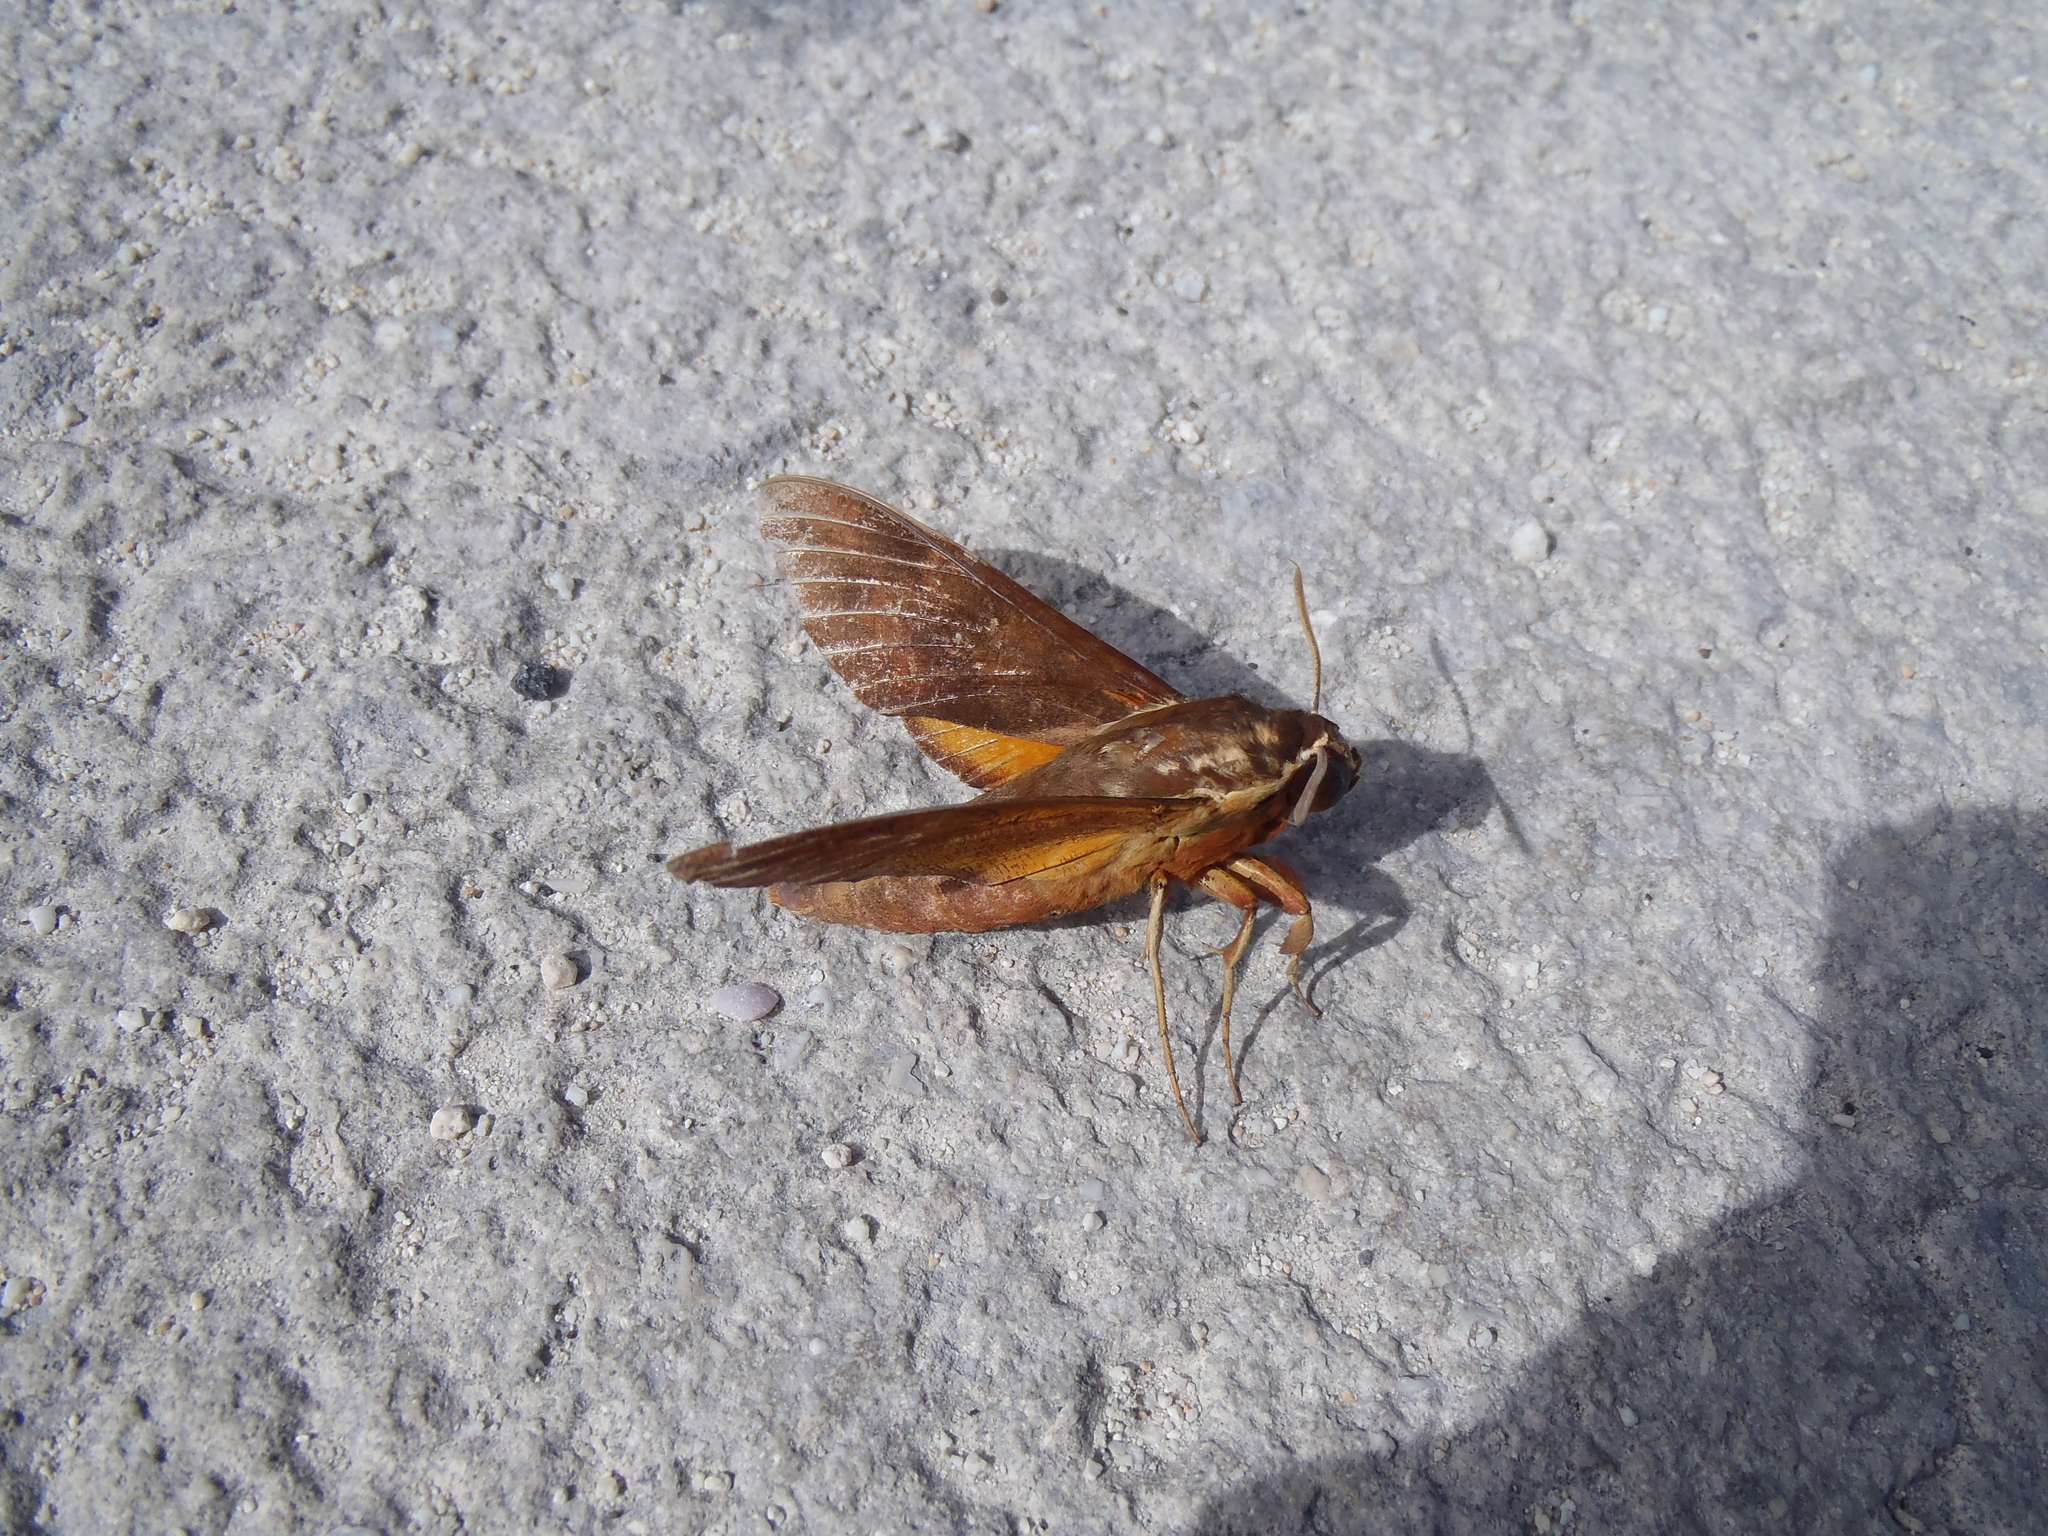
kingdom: Animalia
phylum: Arthropoda
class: Insecta
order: Lepidoptera
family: Sphingidae
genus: Gnathothlibus
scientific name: Gnathothlibus erotus
